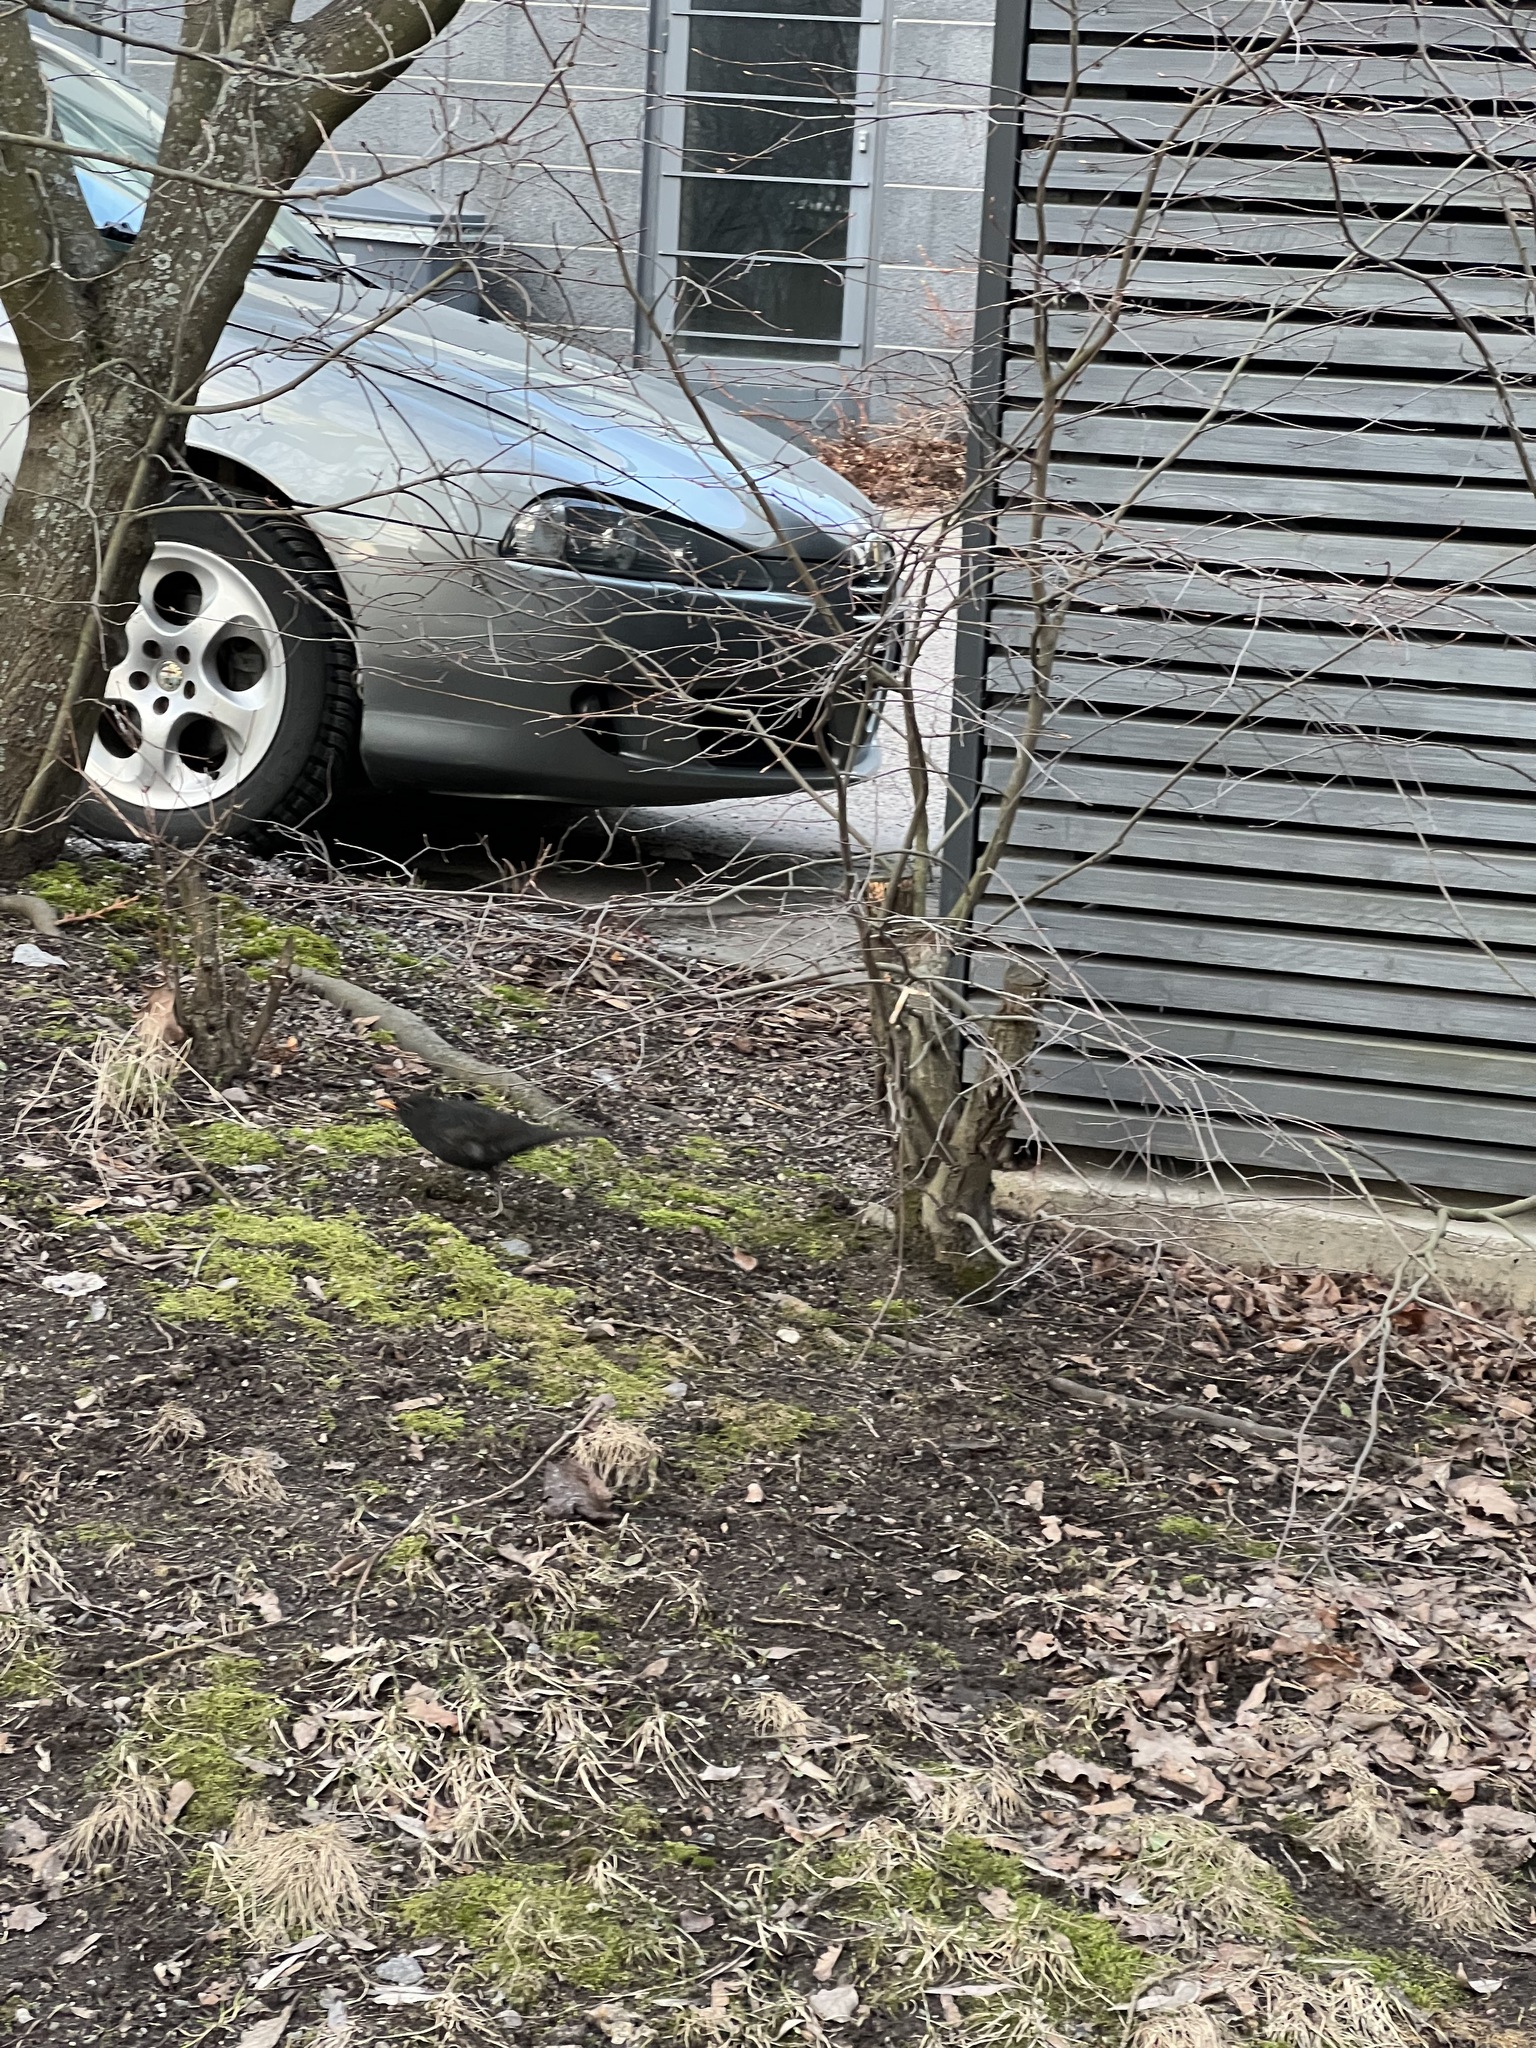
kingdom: Animalia
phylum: Chordata
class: Aves
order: Passeriformes
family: Turdidae
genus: Turdus
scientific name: Turdus merula
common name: Common blackbird
